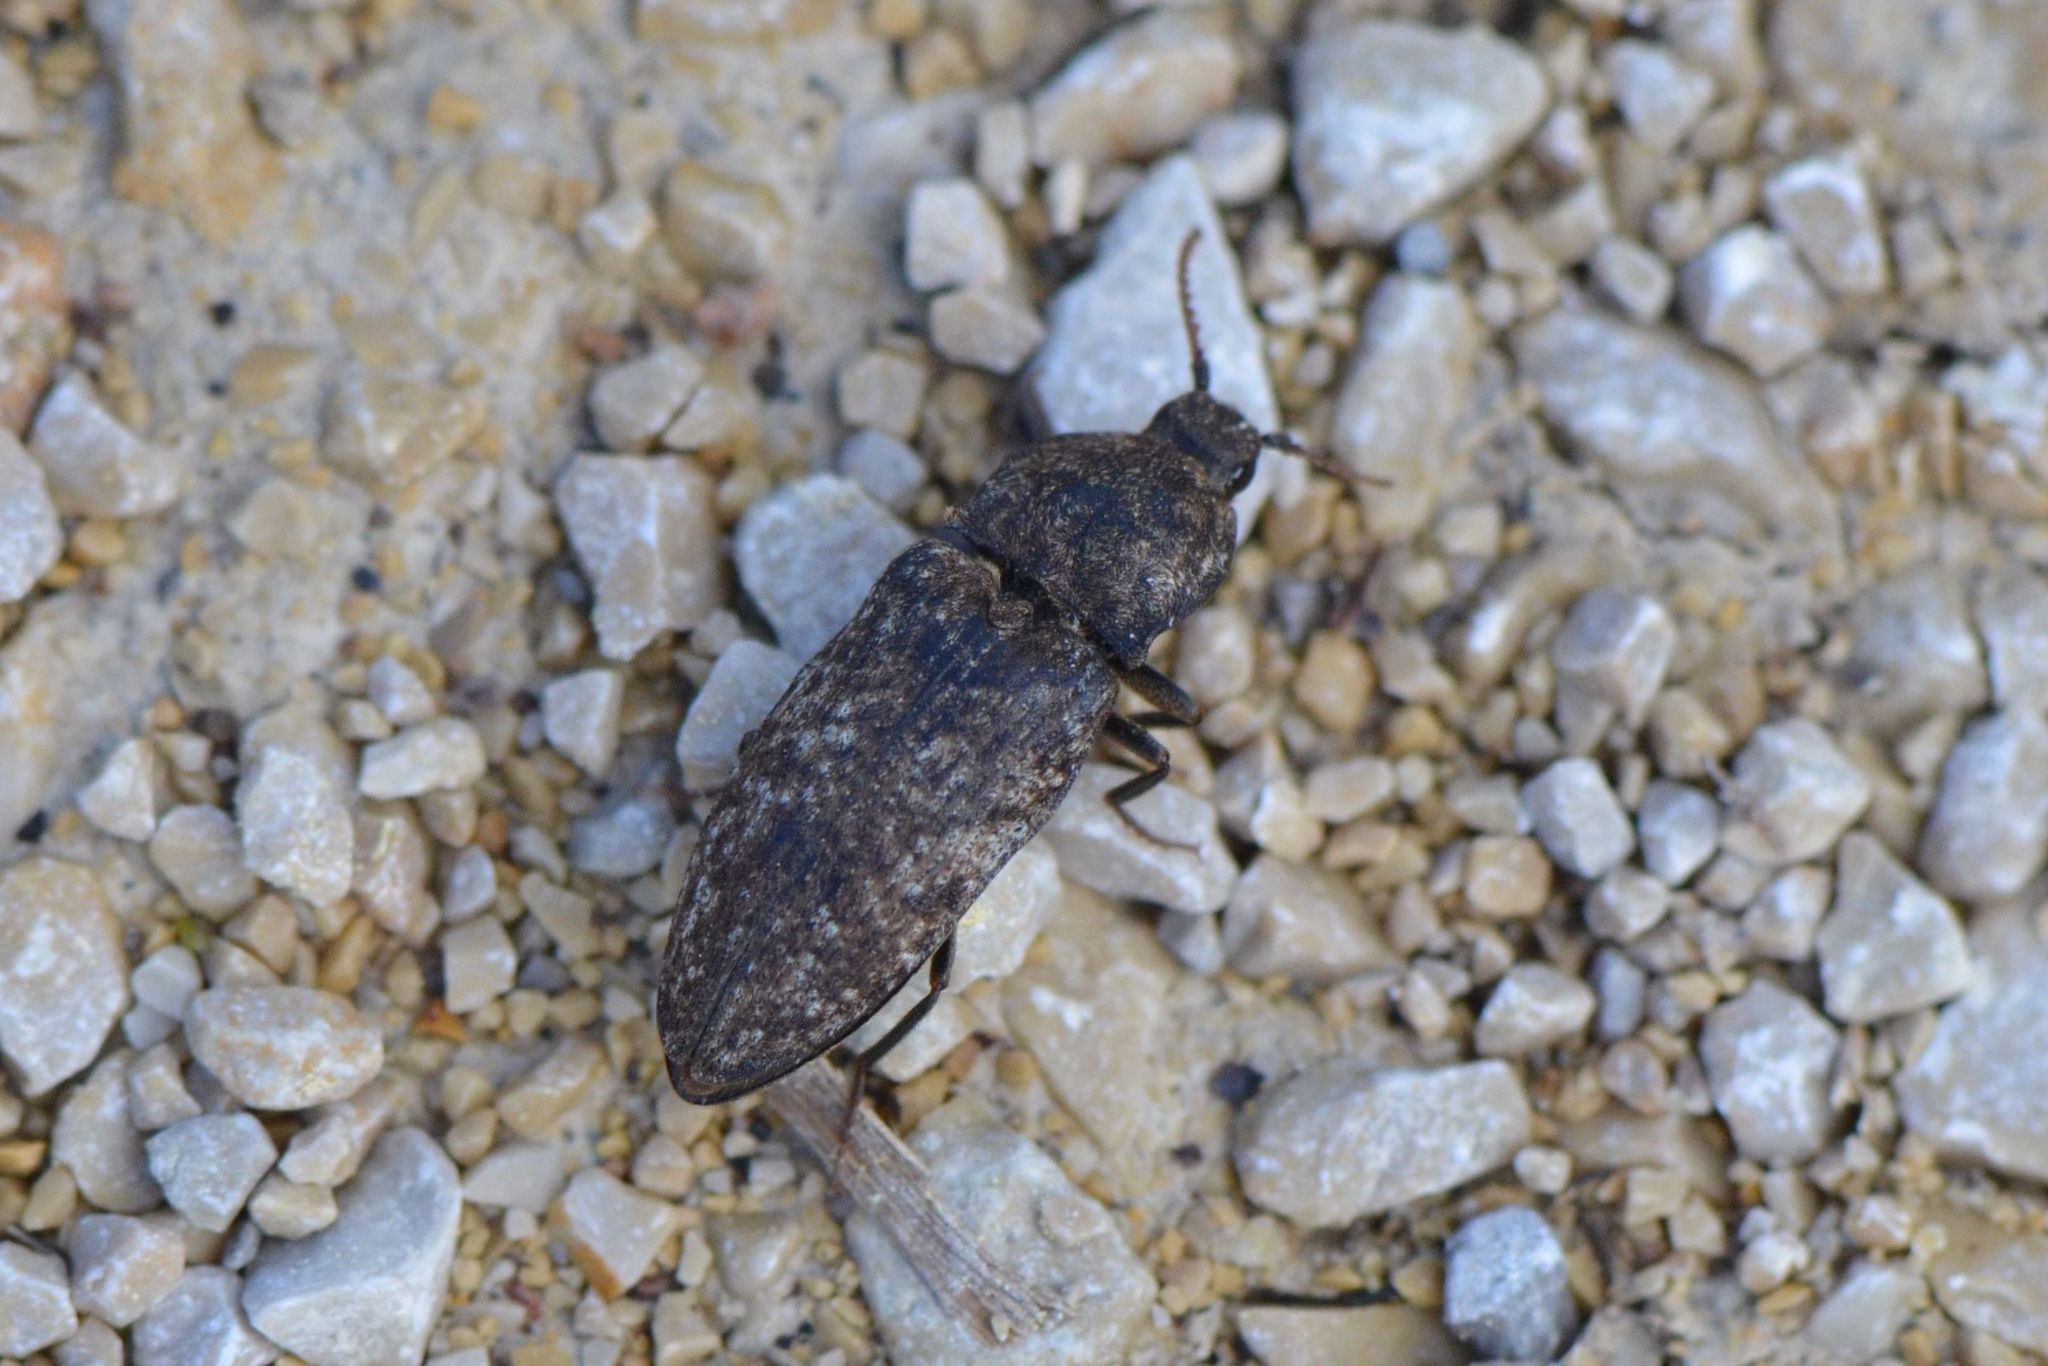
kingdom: Animalia
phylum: Arthropoda
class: Insecta
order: Coleoptera
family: Elateridae
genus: Agrypnus
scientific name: Agrypnus murinus
